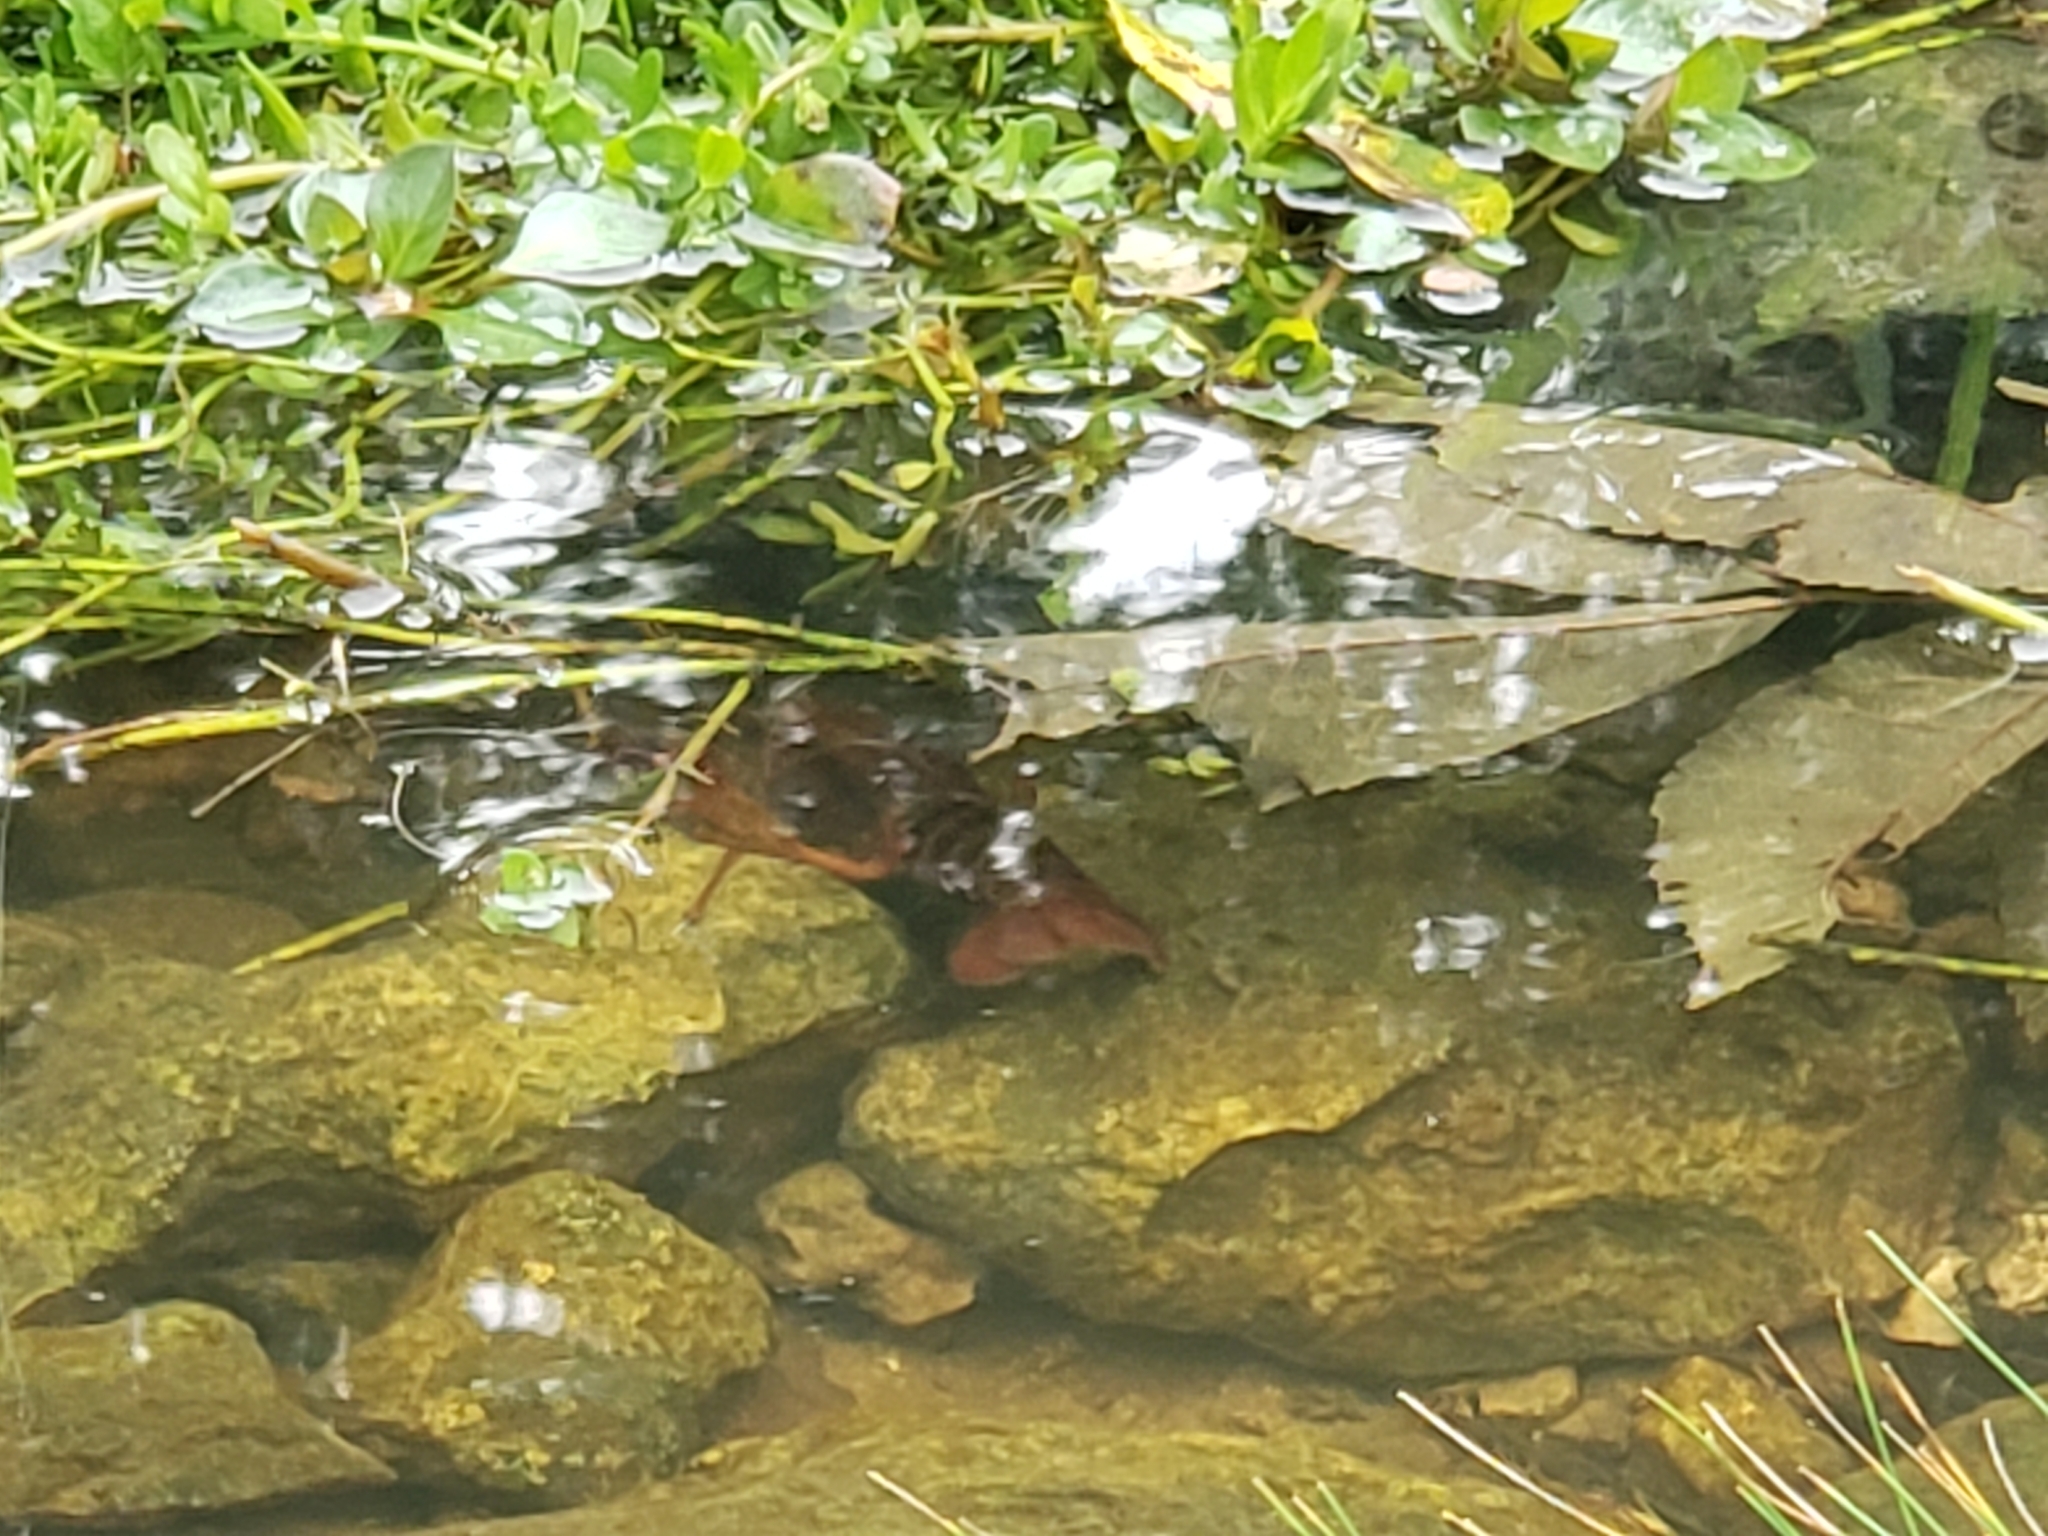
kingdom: Animalia
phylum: Arthropoda
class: Malacostraca
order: Decapoda
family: Cambaridae
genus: Procambarus
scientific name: Procambarus clarkii
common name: Red swamp crayfish
